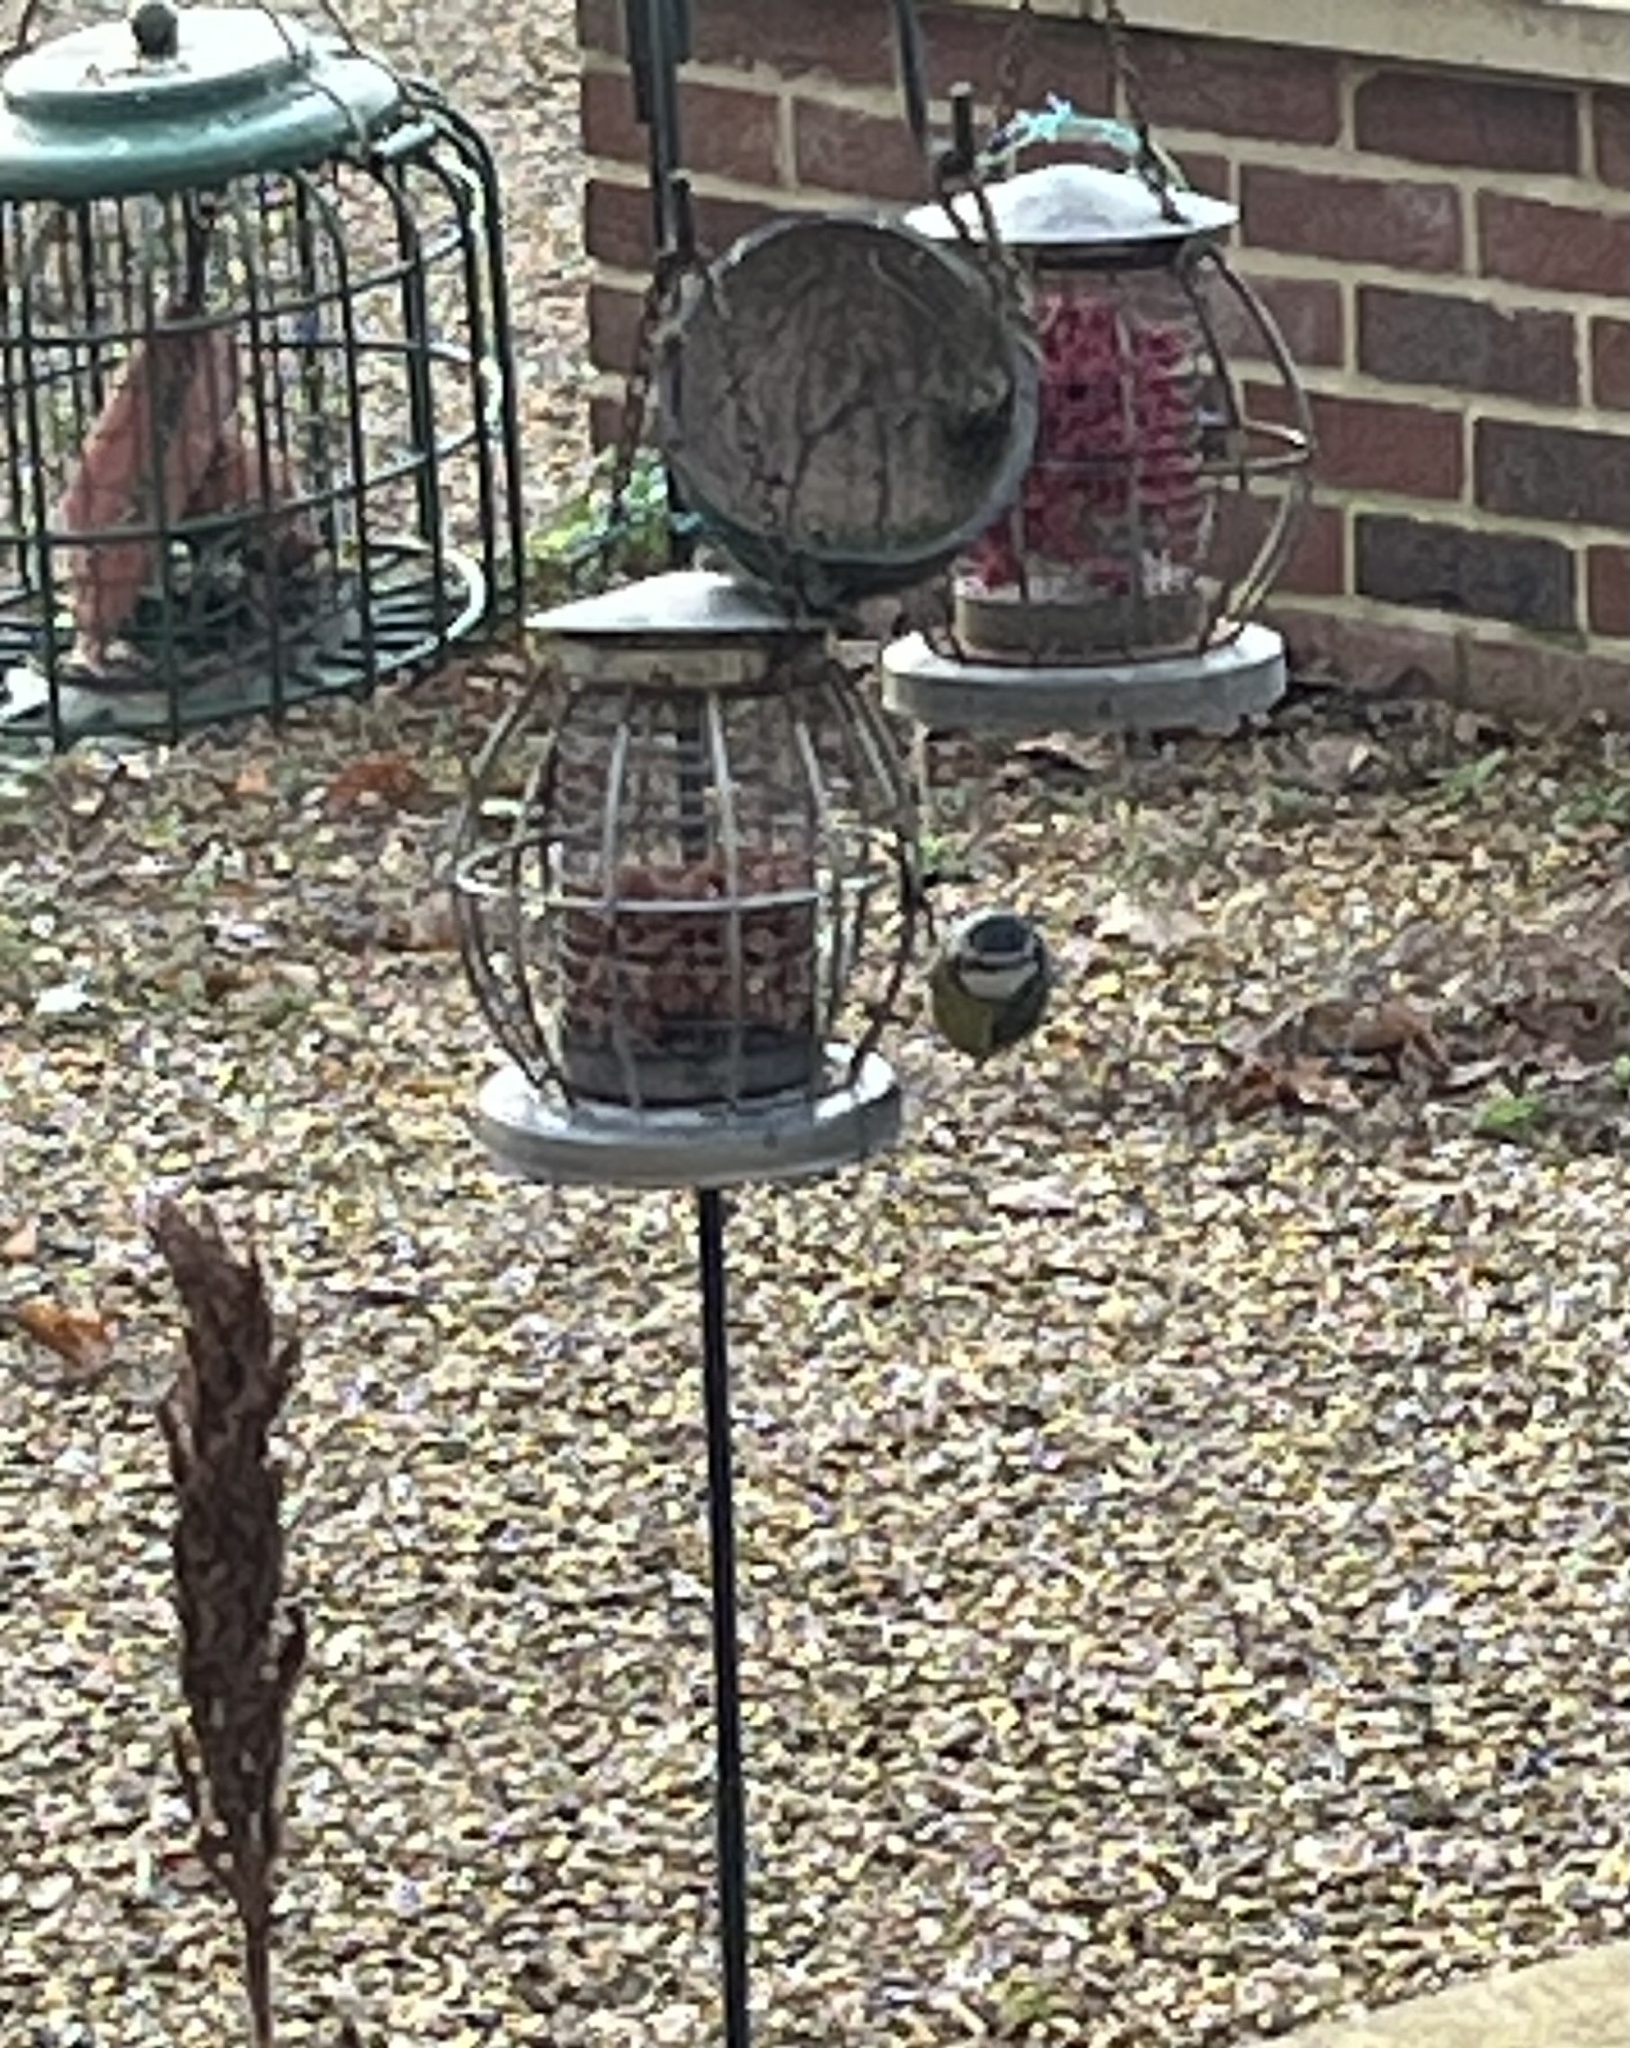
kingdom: Animalia
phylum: Chordata
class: Aves
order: Passeriformes
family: Paridae
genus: Cyanistes
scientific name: Cyanistes caeruleus
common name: Eurasian blue tit
